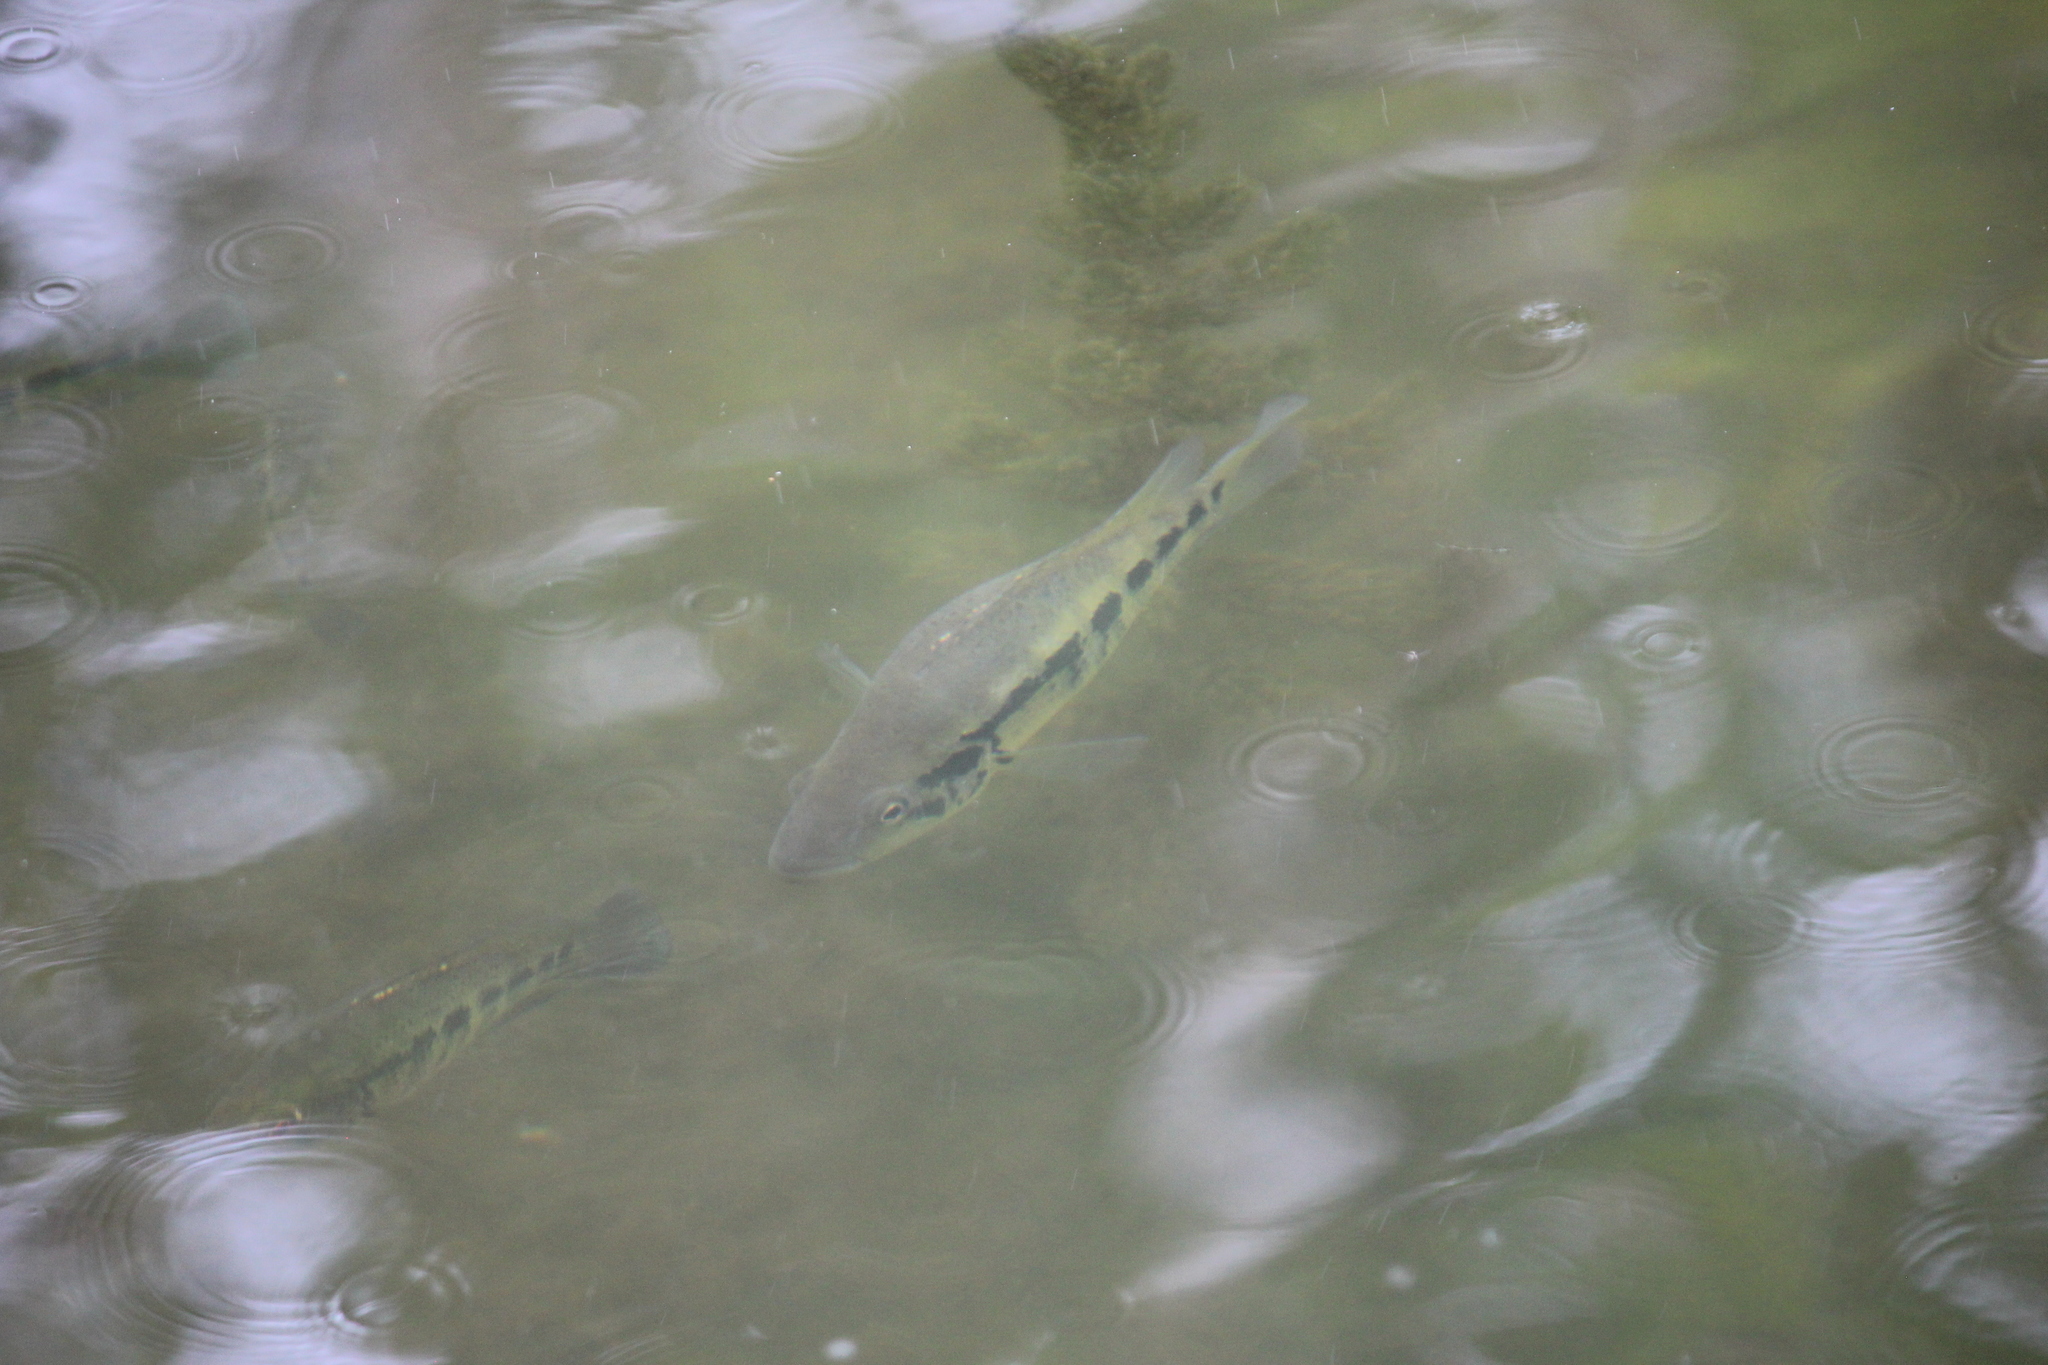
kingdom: Animalia
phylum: Chordata
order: Perciformes
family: Cichlidae
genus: Parachromis
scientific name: Parachromis dovii
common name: Guapote
